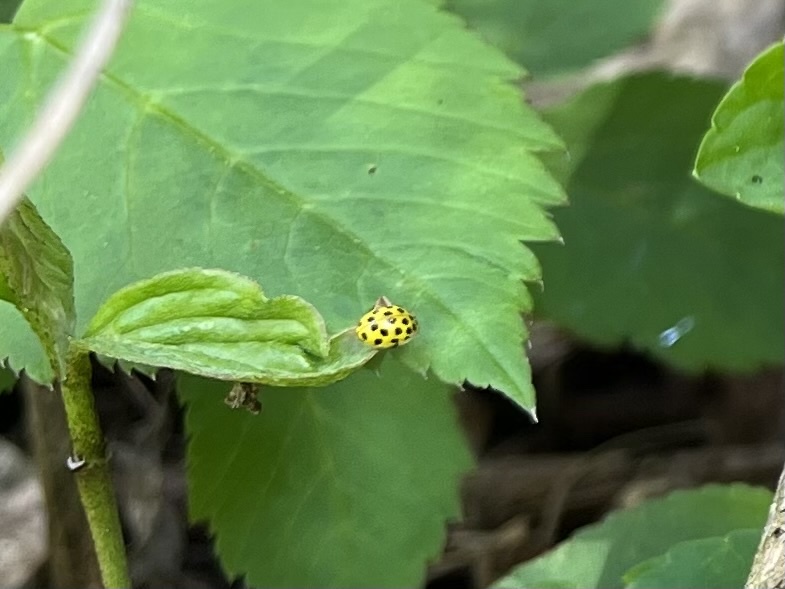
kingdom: Animalia
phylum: Arthropoda
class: Insecta
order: Coleoptera
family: Coccinellidae
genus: Psyllobora
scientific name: Psyllobora vigintiduopunctata
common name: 22-spot ladybird
